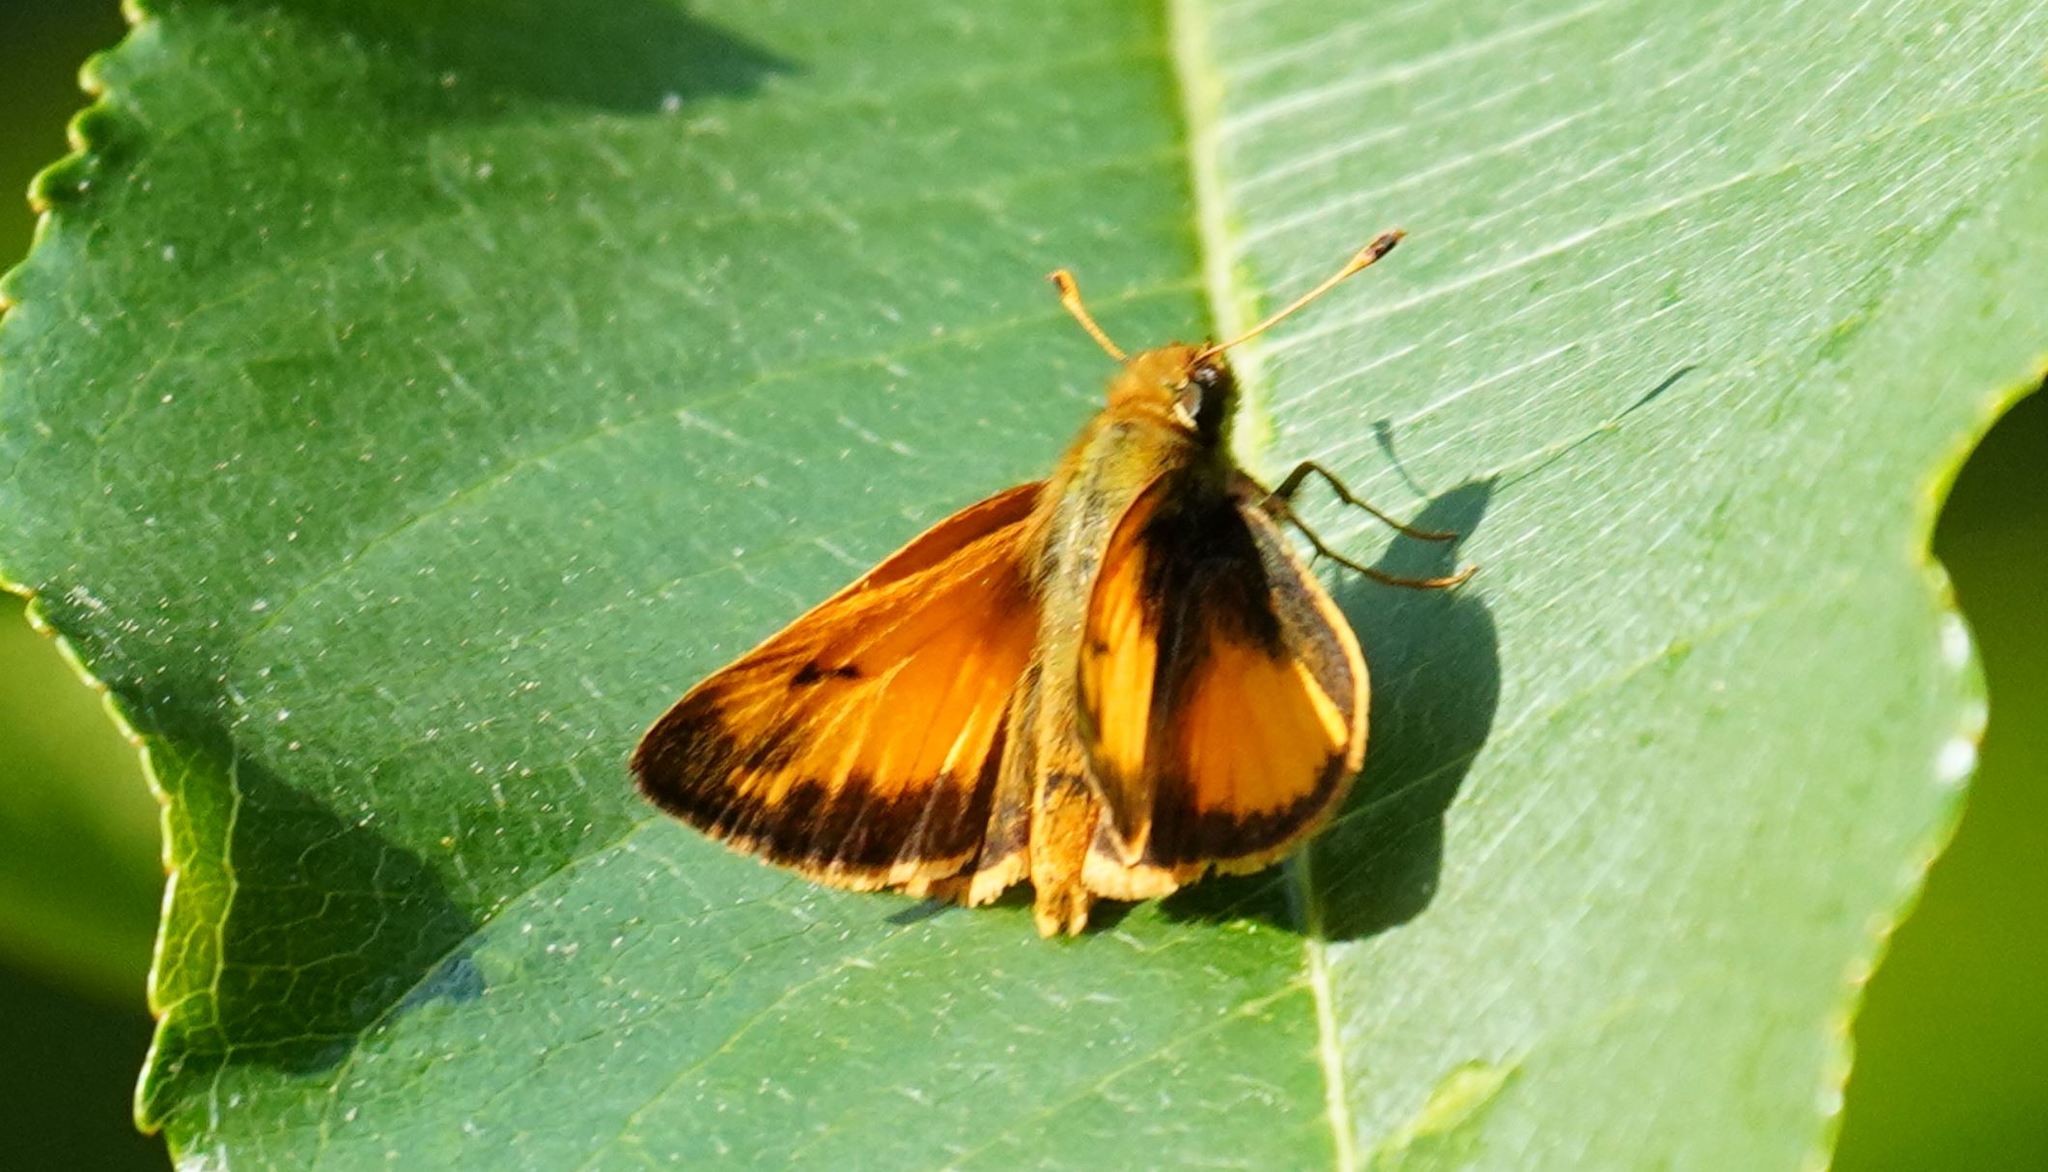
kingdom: Animalia
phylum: Arthropoda
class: Insecta
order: Lepidoptera
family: Hesperiidae
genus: Lon
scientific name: Lon zabulon
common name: Zabulon skipper
